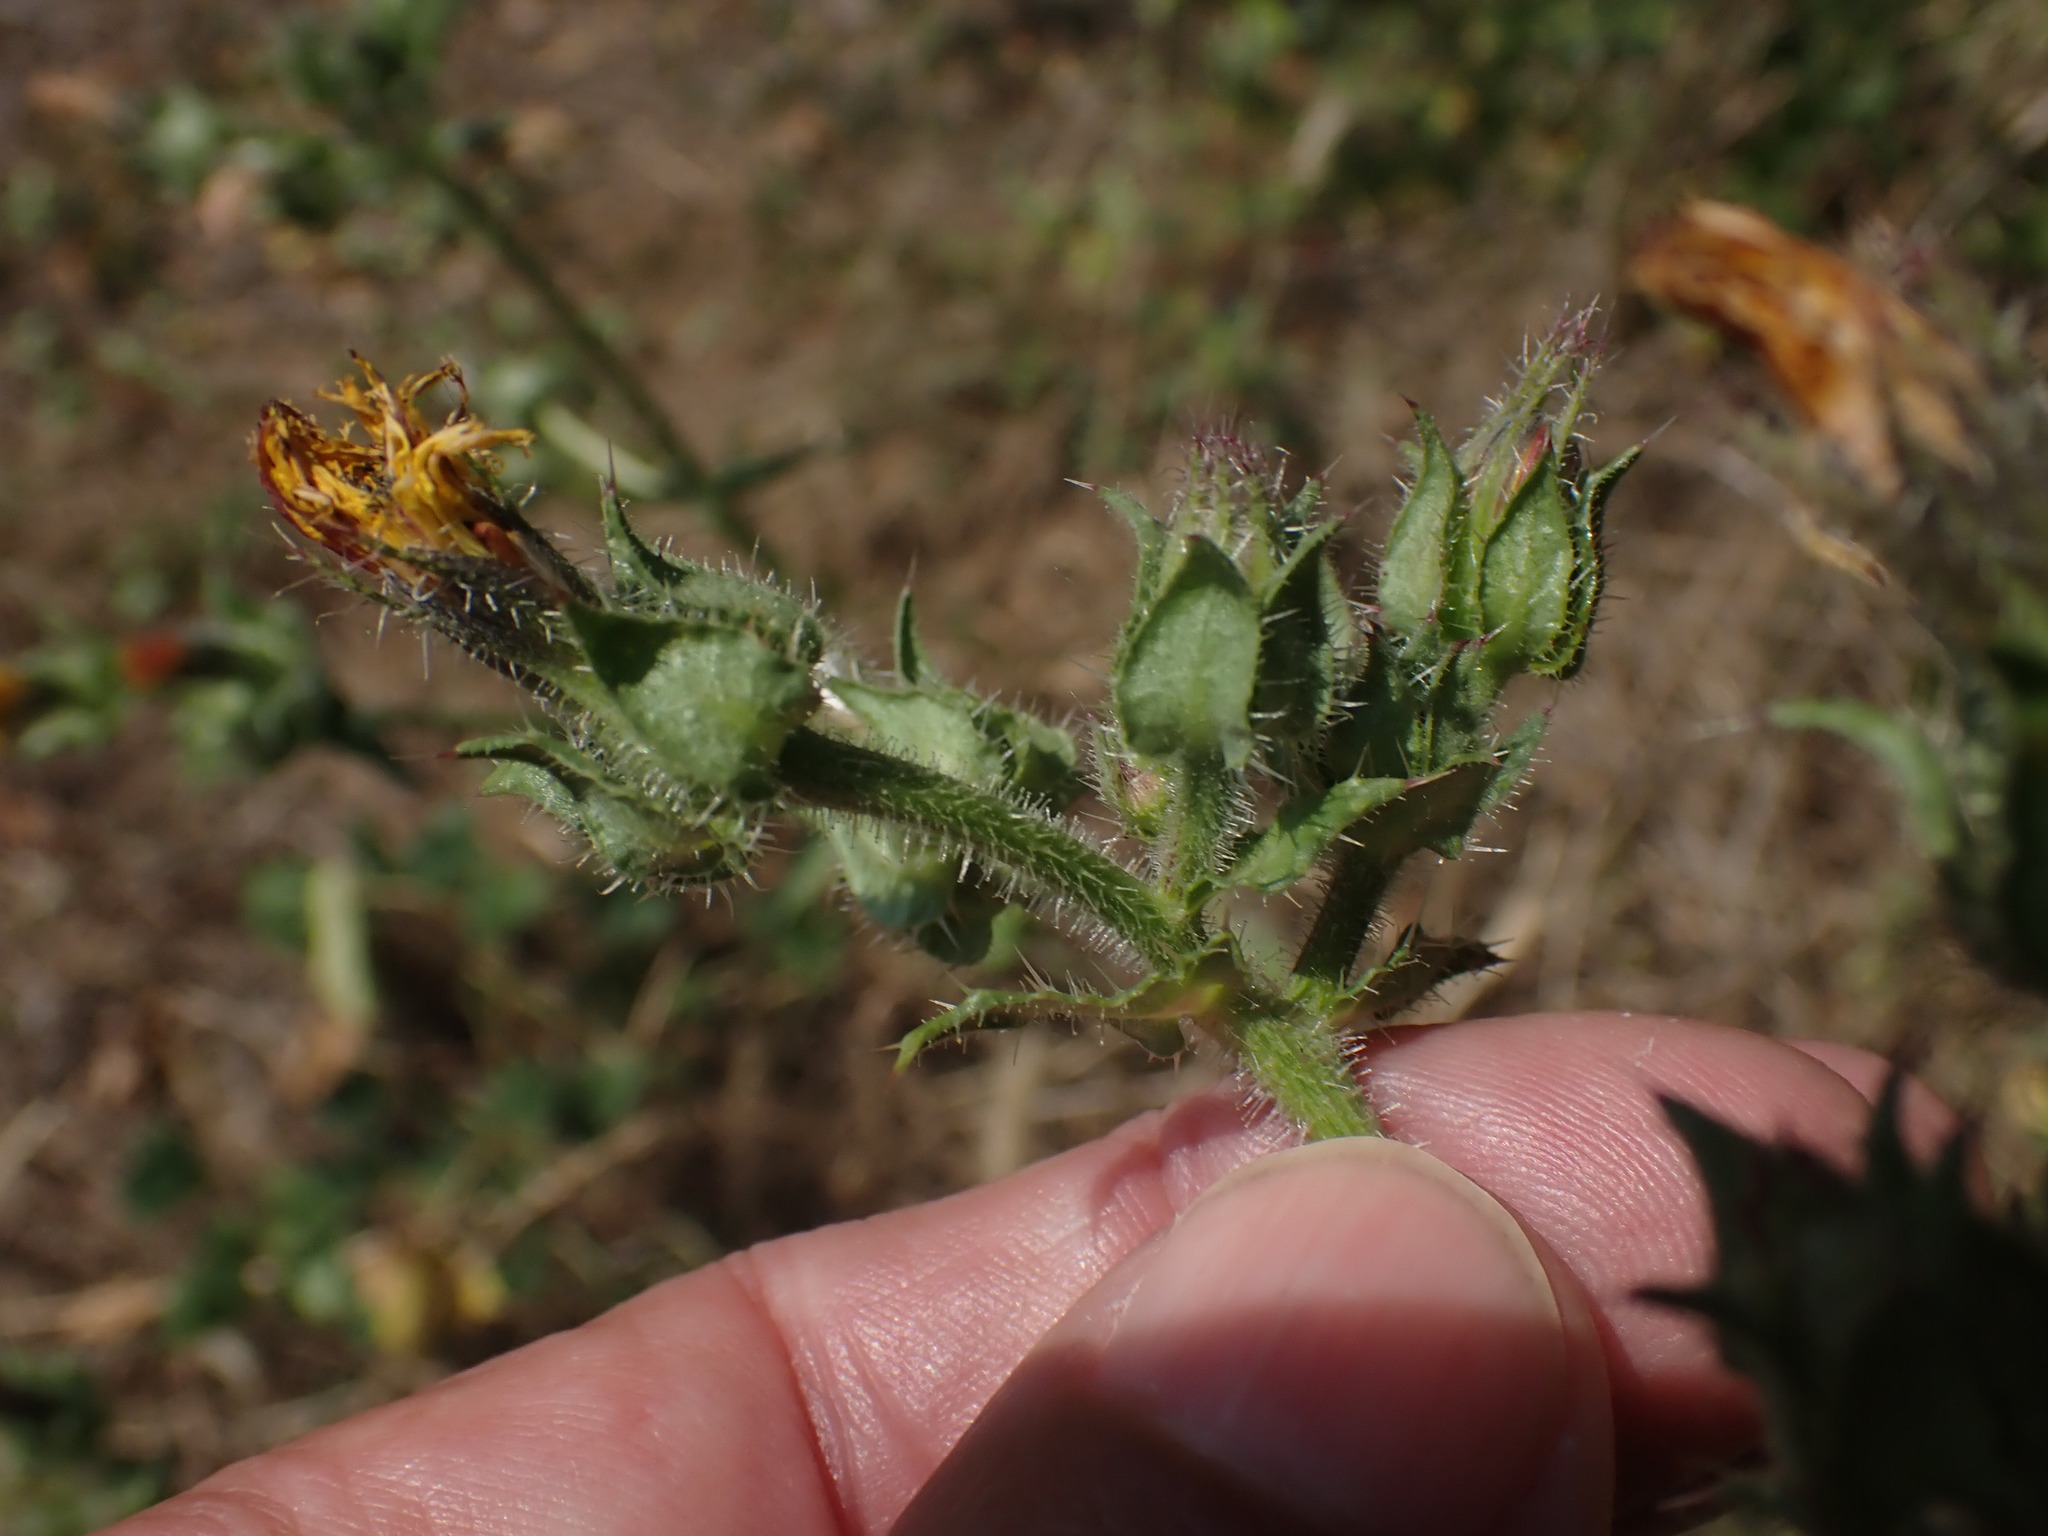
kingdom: Plantae
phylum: Tracheophyta
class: Magnoliopsida
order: Asterales
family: Asteraceae
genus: Helminthotheca
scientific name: Helminthotheca echioides
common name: Ox-tongue
